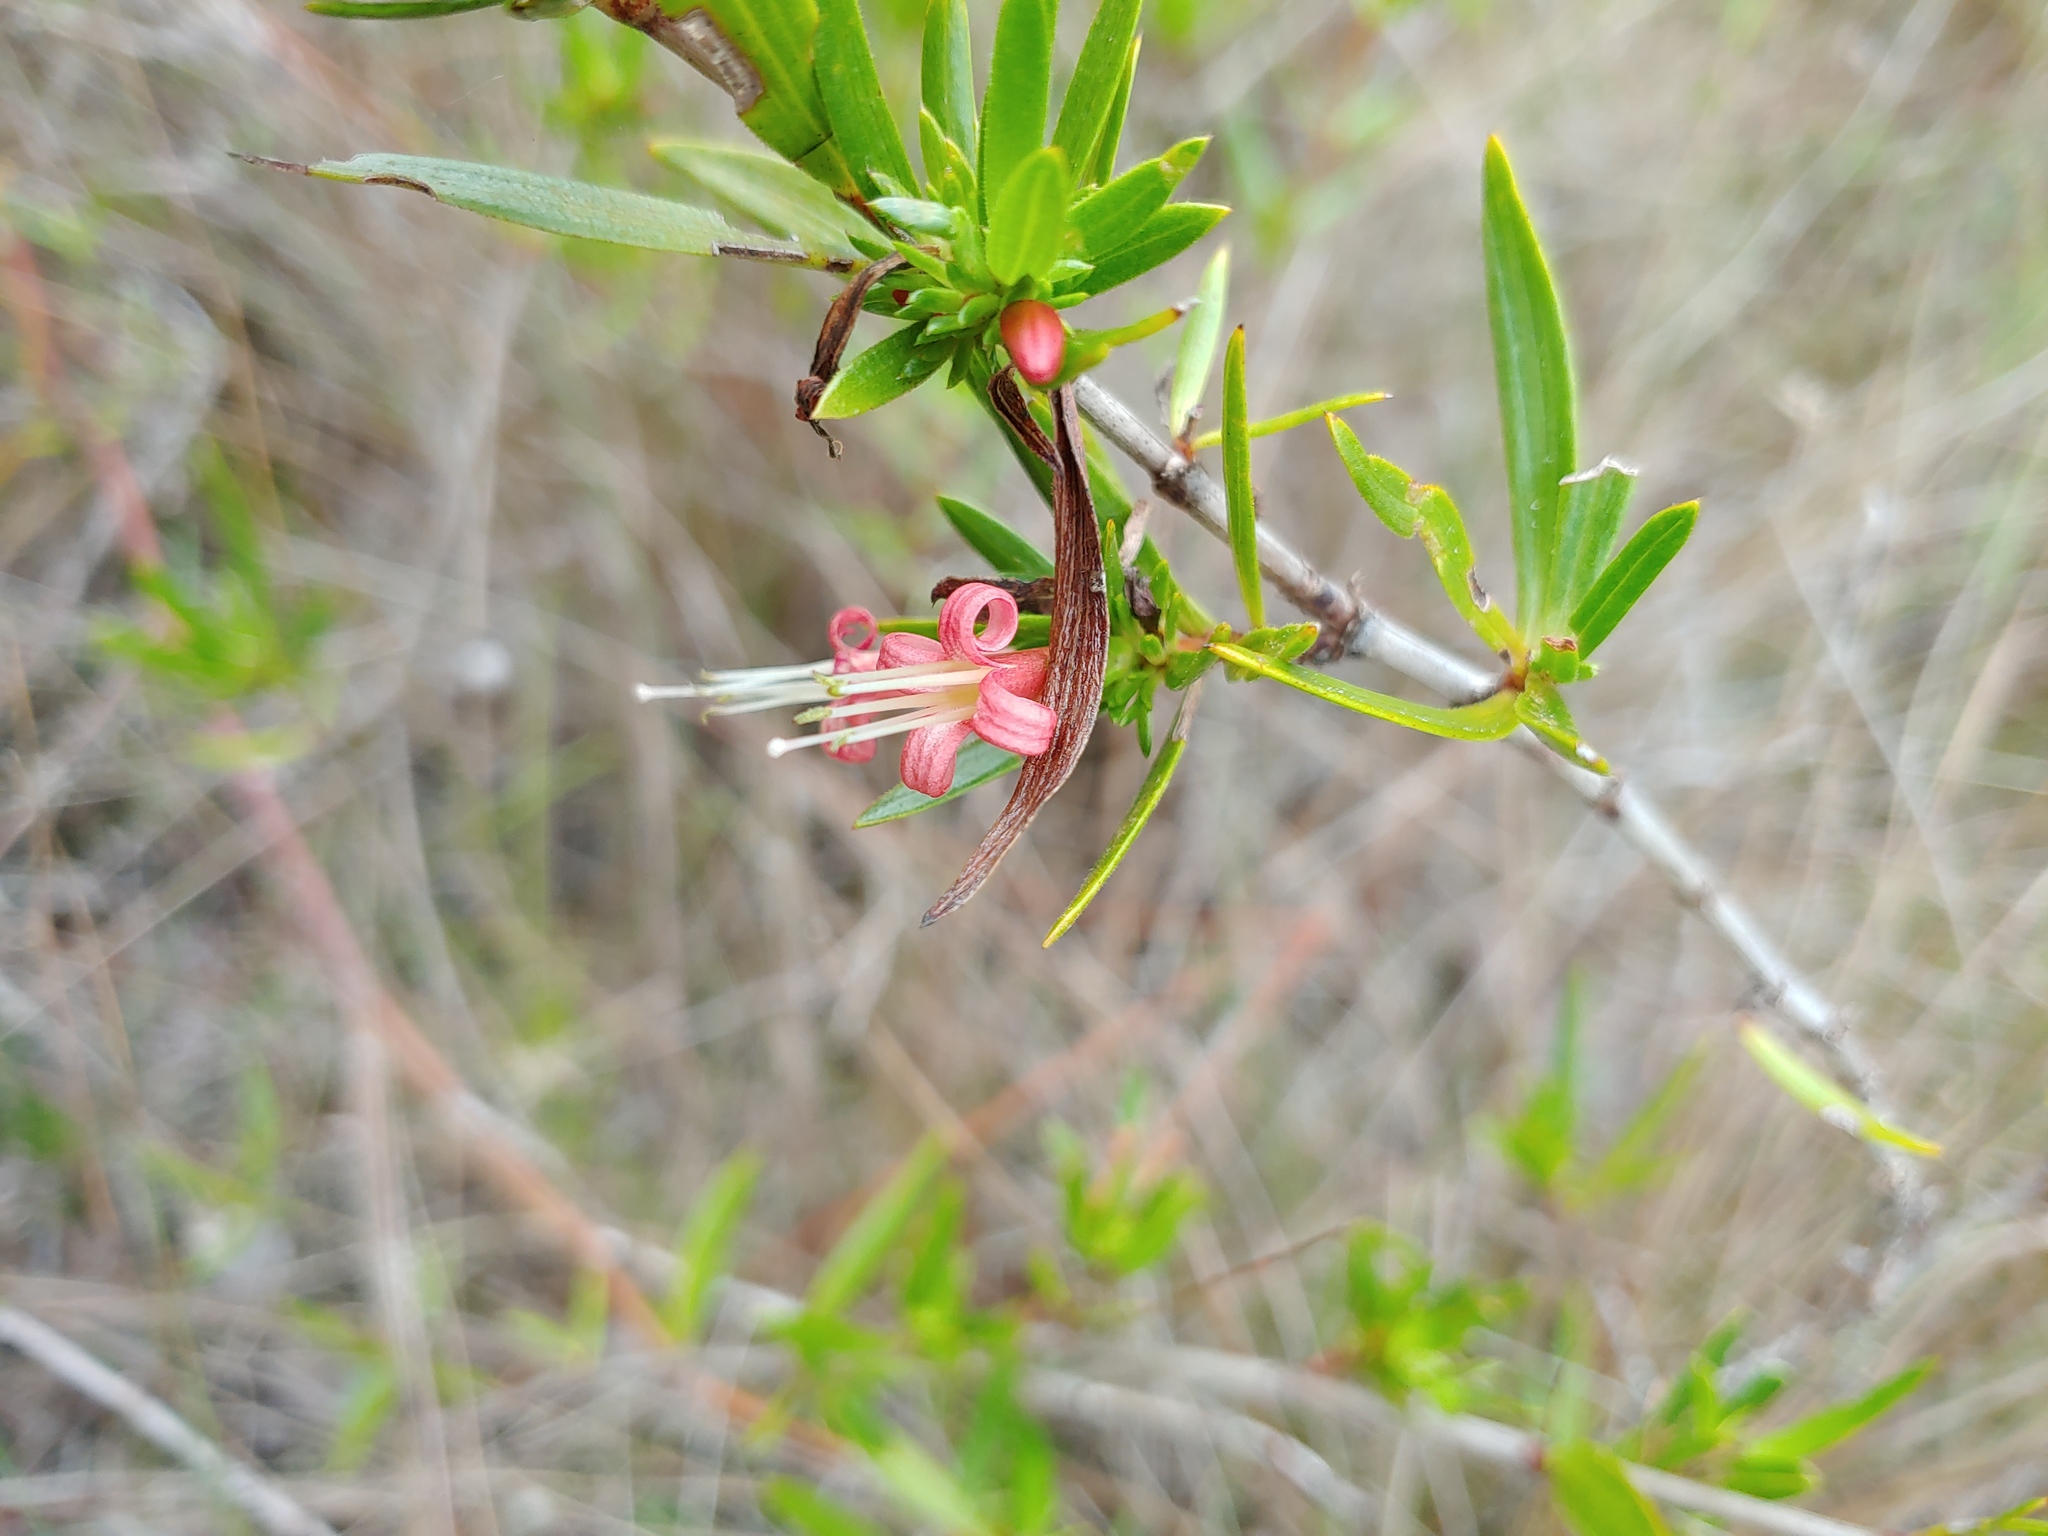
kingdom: Plantae
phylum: Tracheophyta
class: Magnoliopsida
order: Gentianales
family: Rubiaceae
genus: Ernodea
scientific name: Ernodea littoralis
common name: Beach creeper
